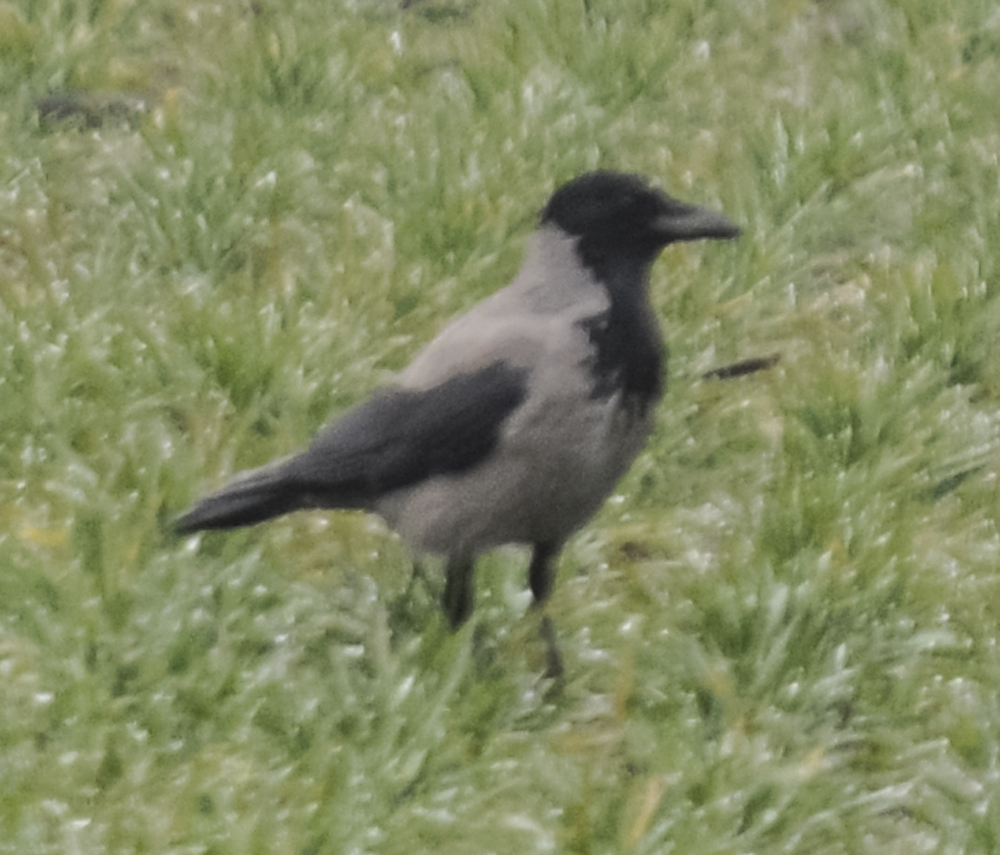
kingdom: Animalia
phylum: Chordata
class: Aves
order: Passeriformes
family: Corvidae
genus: Corvus
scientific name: Corvus cornix
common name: Hooded crow
